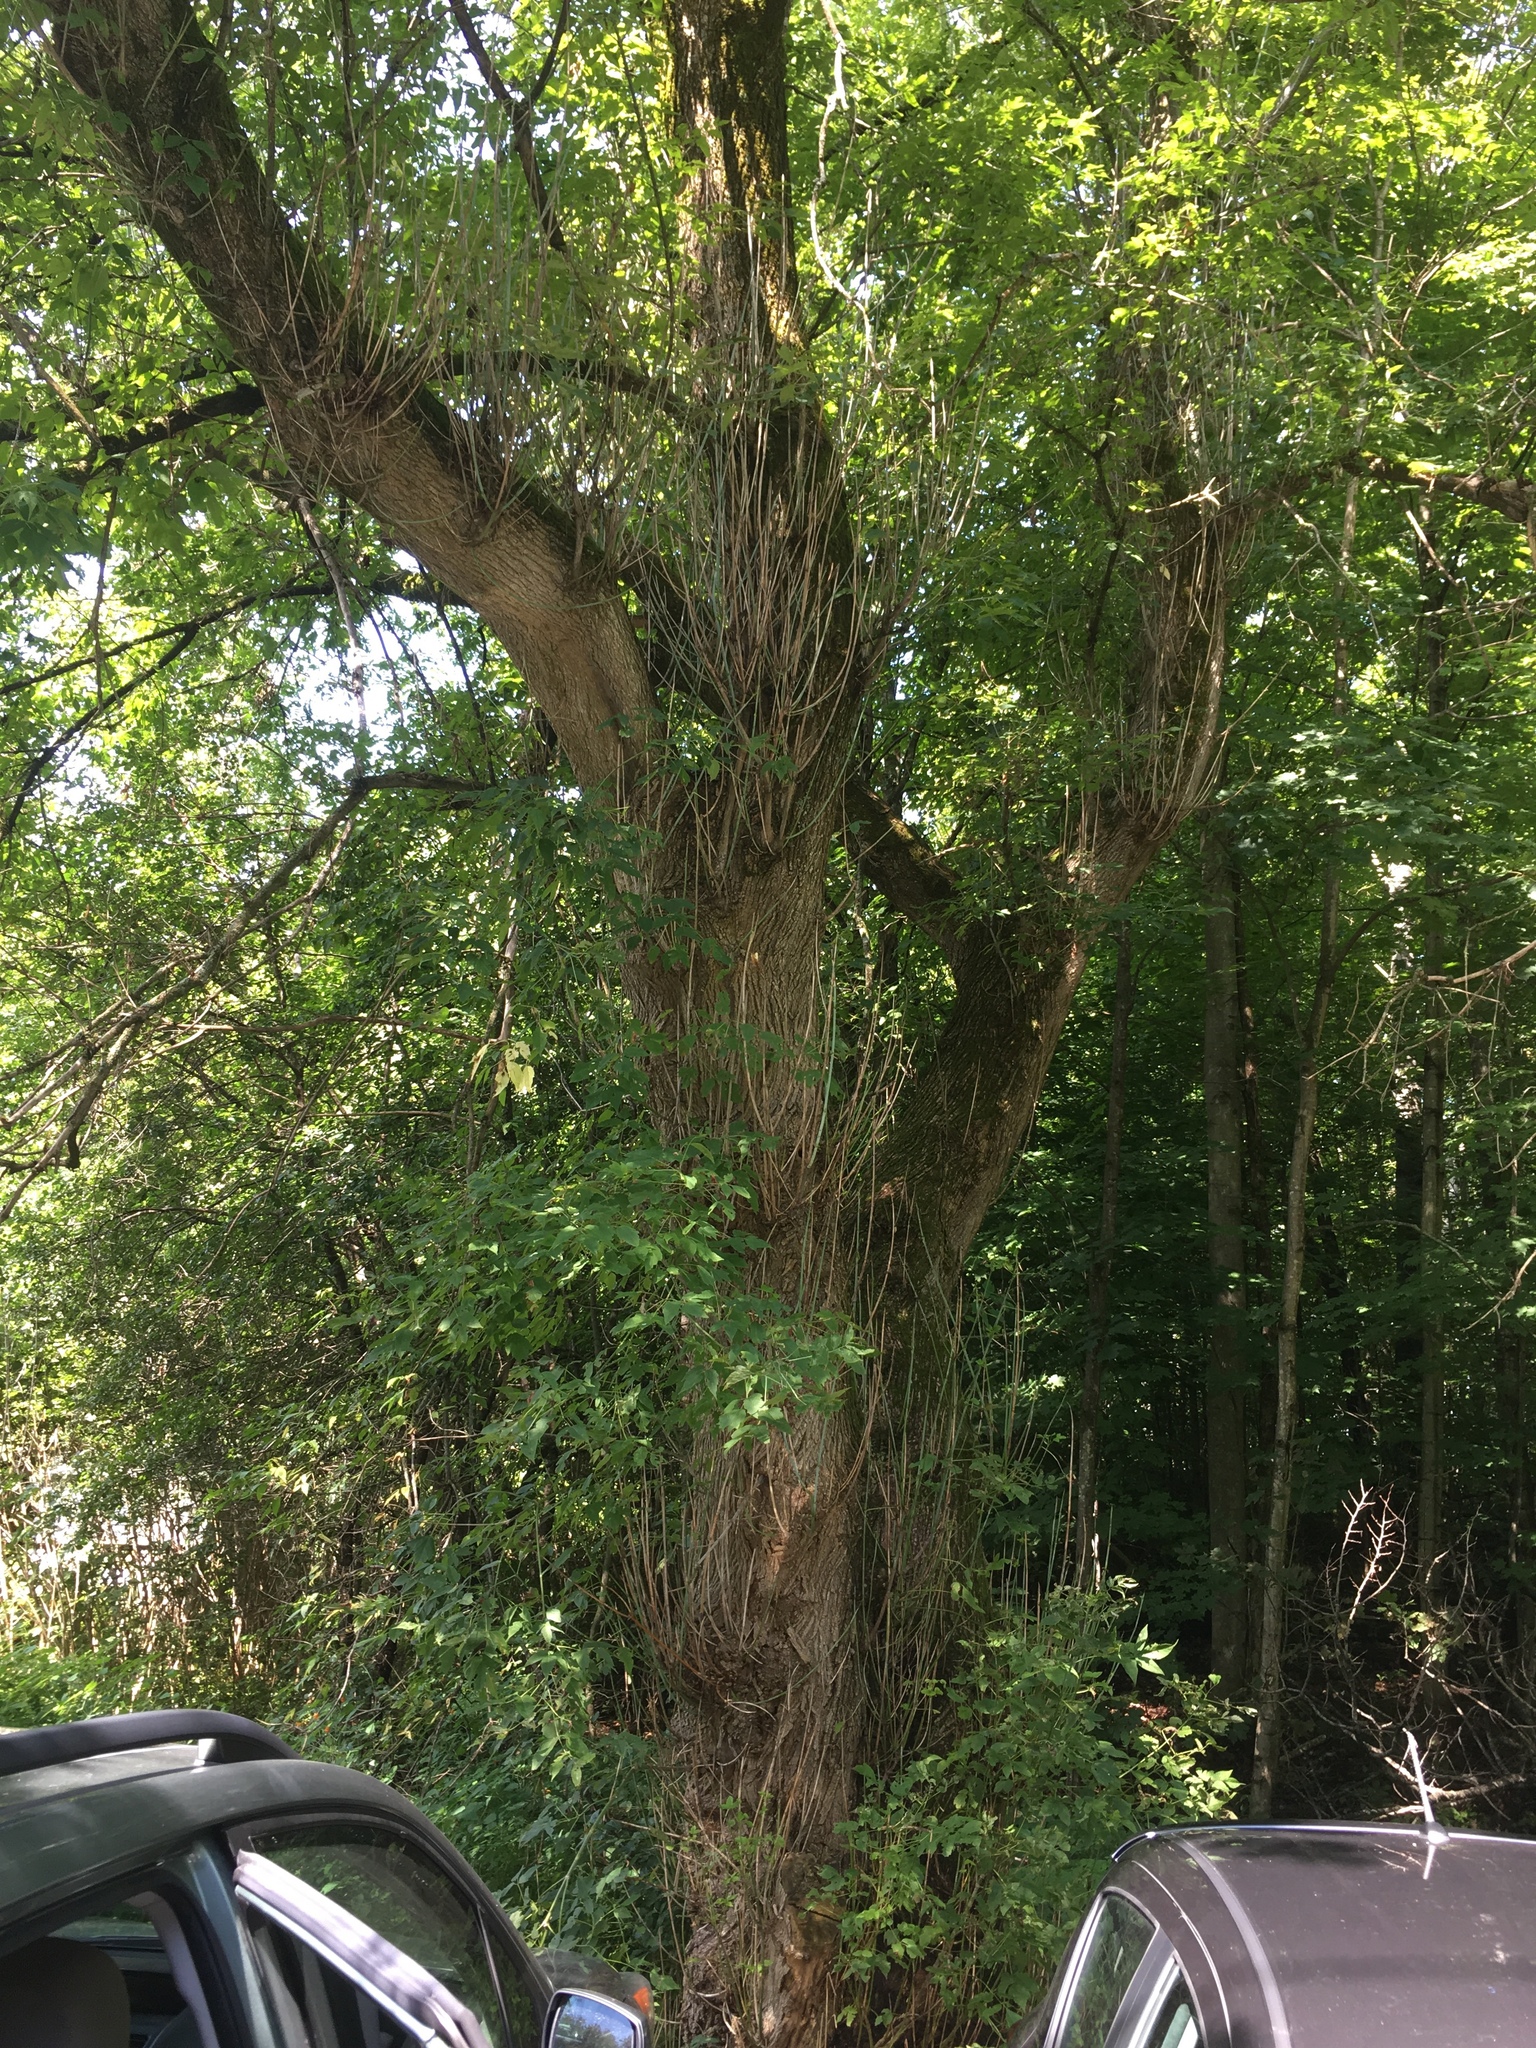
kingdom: Plantae
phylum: Tracheophyta
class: Magnoliopsida
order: Sapindales
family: Sapindaceae
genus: Acer
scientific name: Acer negundo
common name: Ashleaf maple
